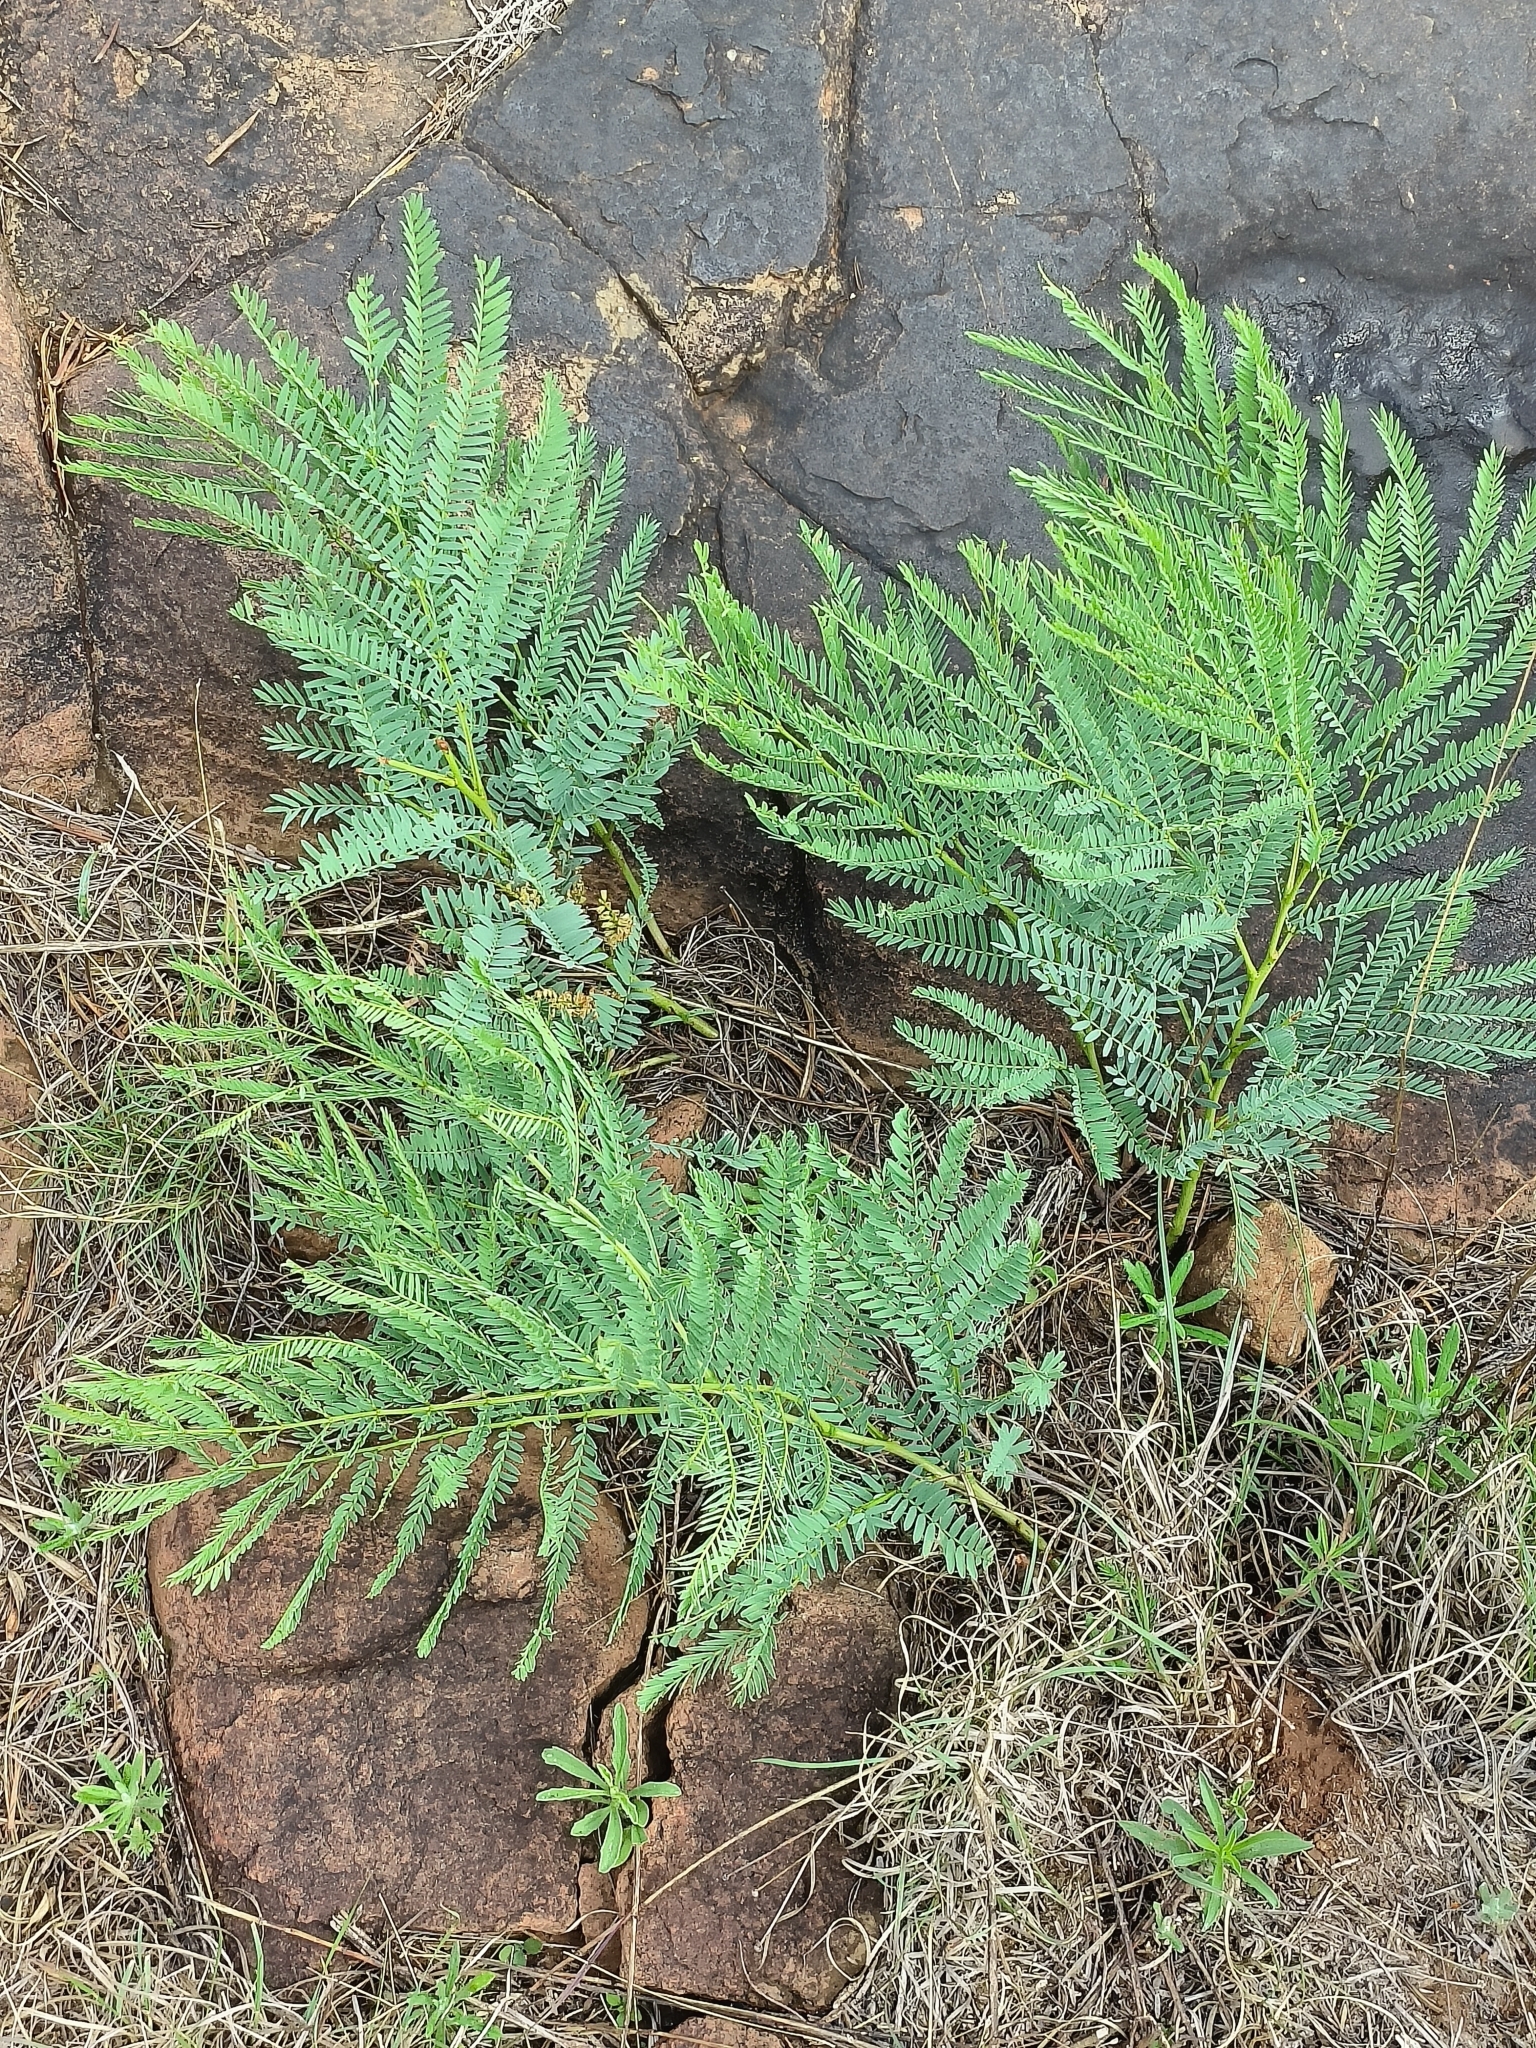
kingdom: Plantae
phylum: Tracheophyta
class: Magnoliopsida
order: Fabales
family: Fabaceae
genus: Elephantorrhiza
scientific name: Elephantorrhiza elephantina
